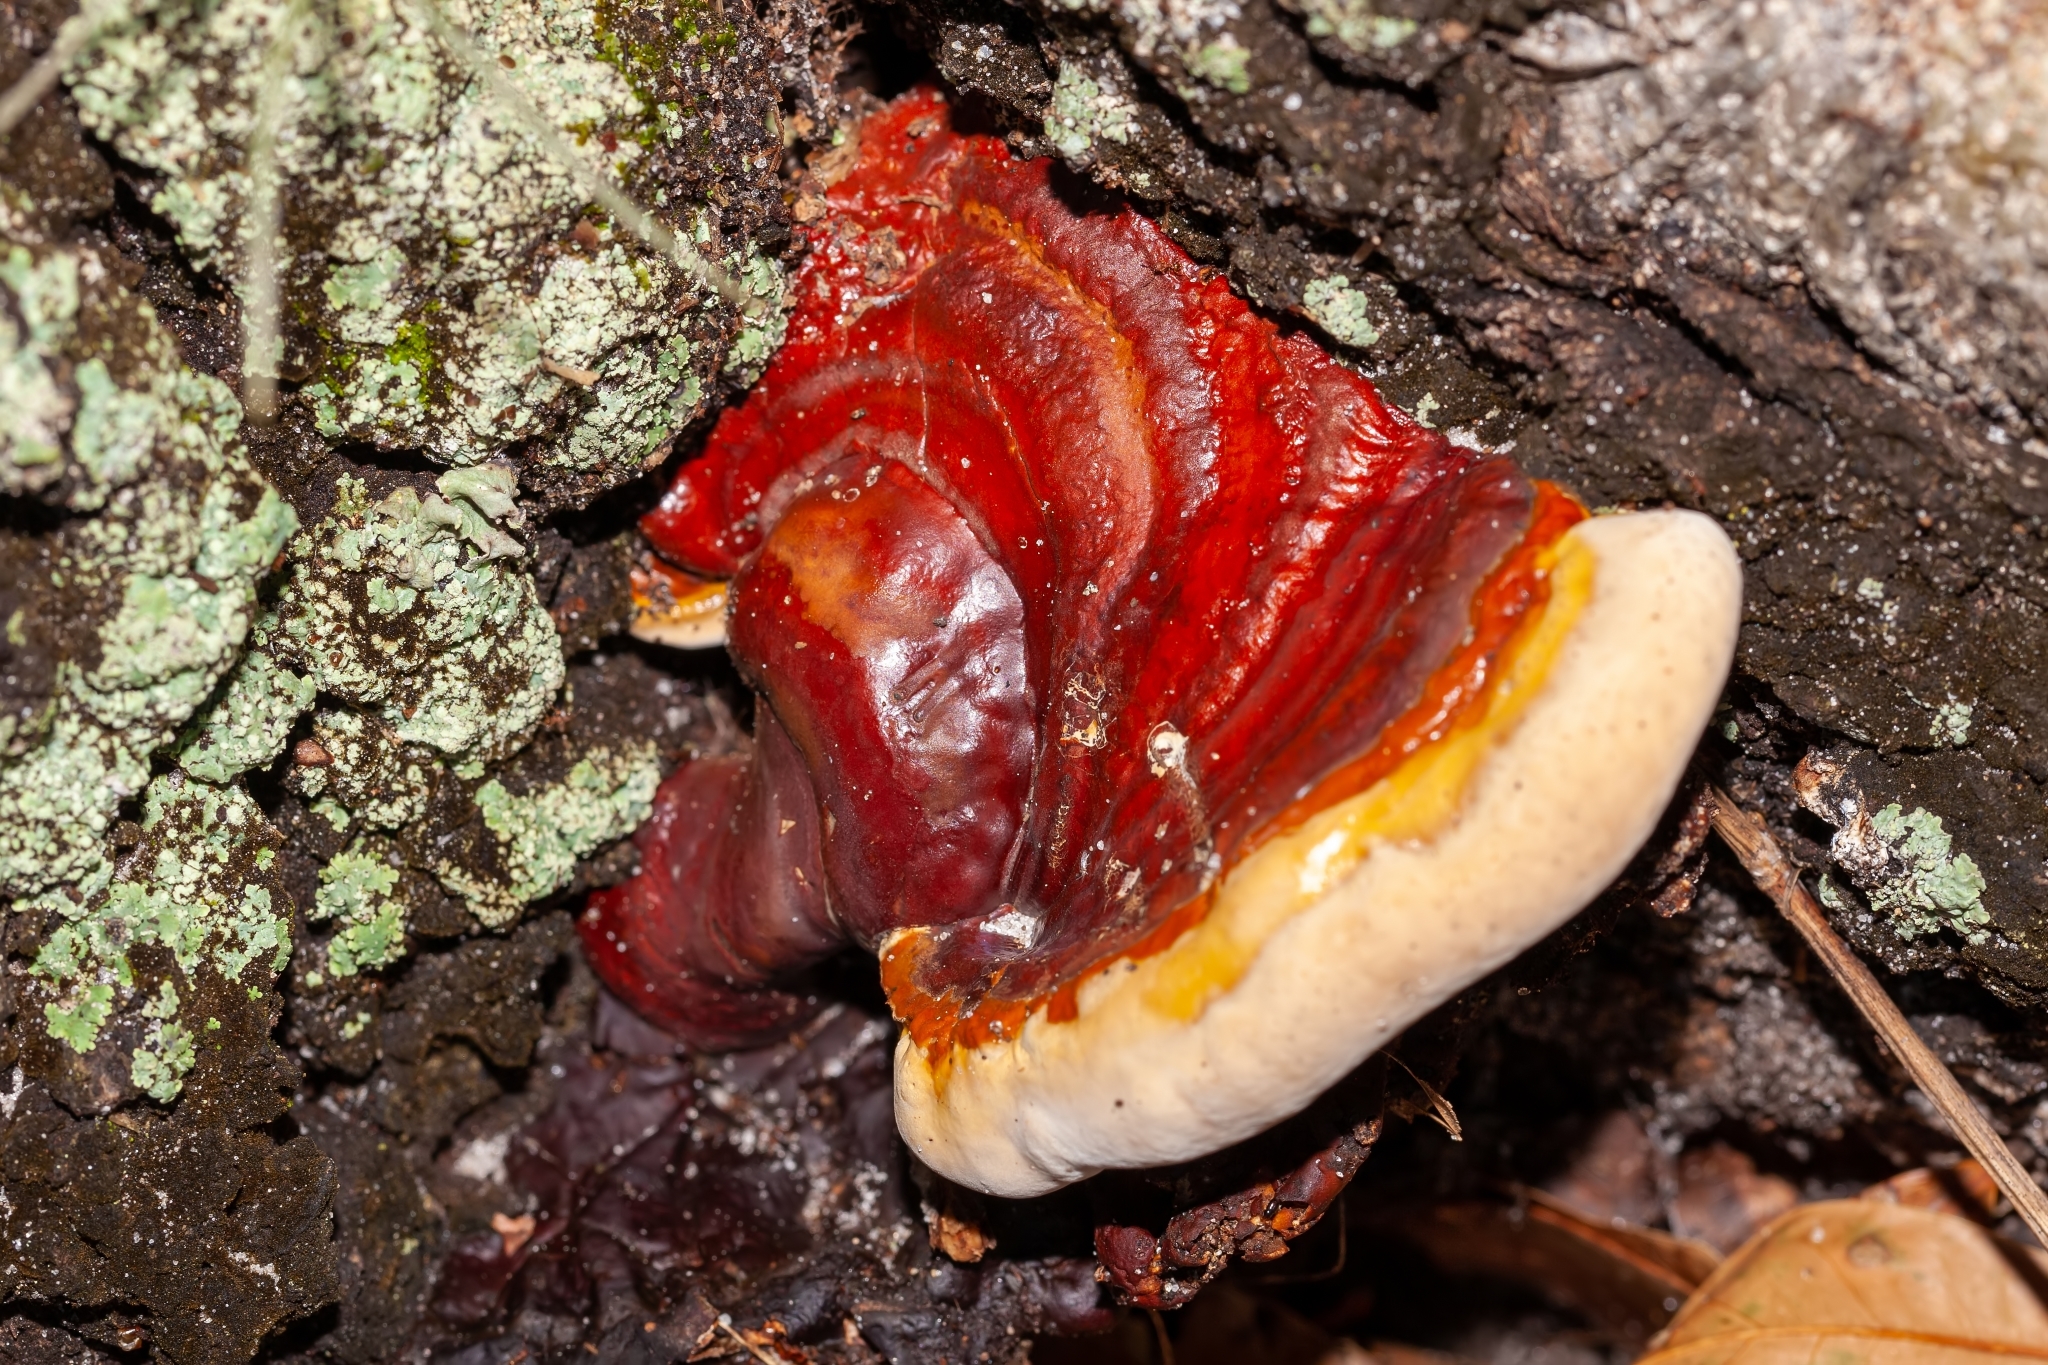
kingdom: Fungi
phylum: Basidiomycota
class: Agaricomycetes
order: Polyporales
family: Polyporaceae
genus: Ganoderma
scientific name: Ganoderma resinaceum
